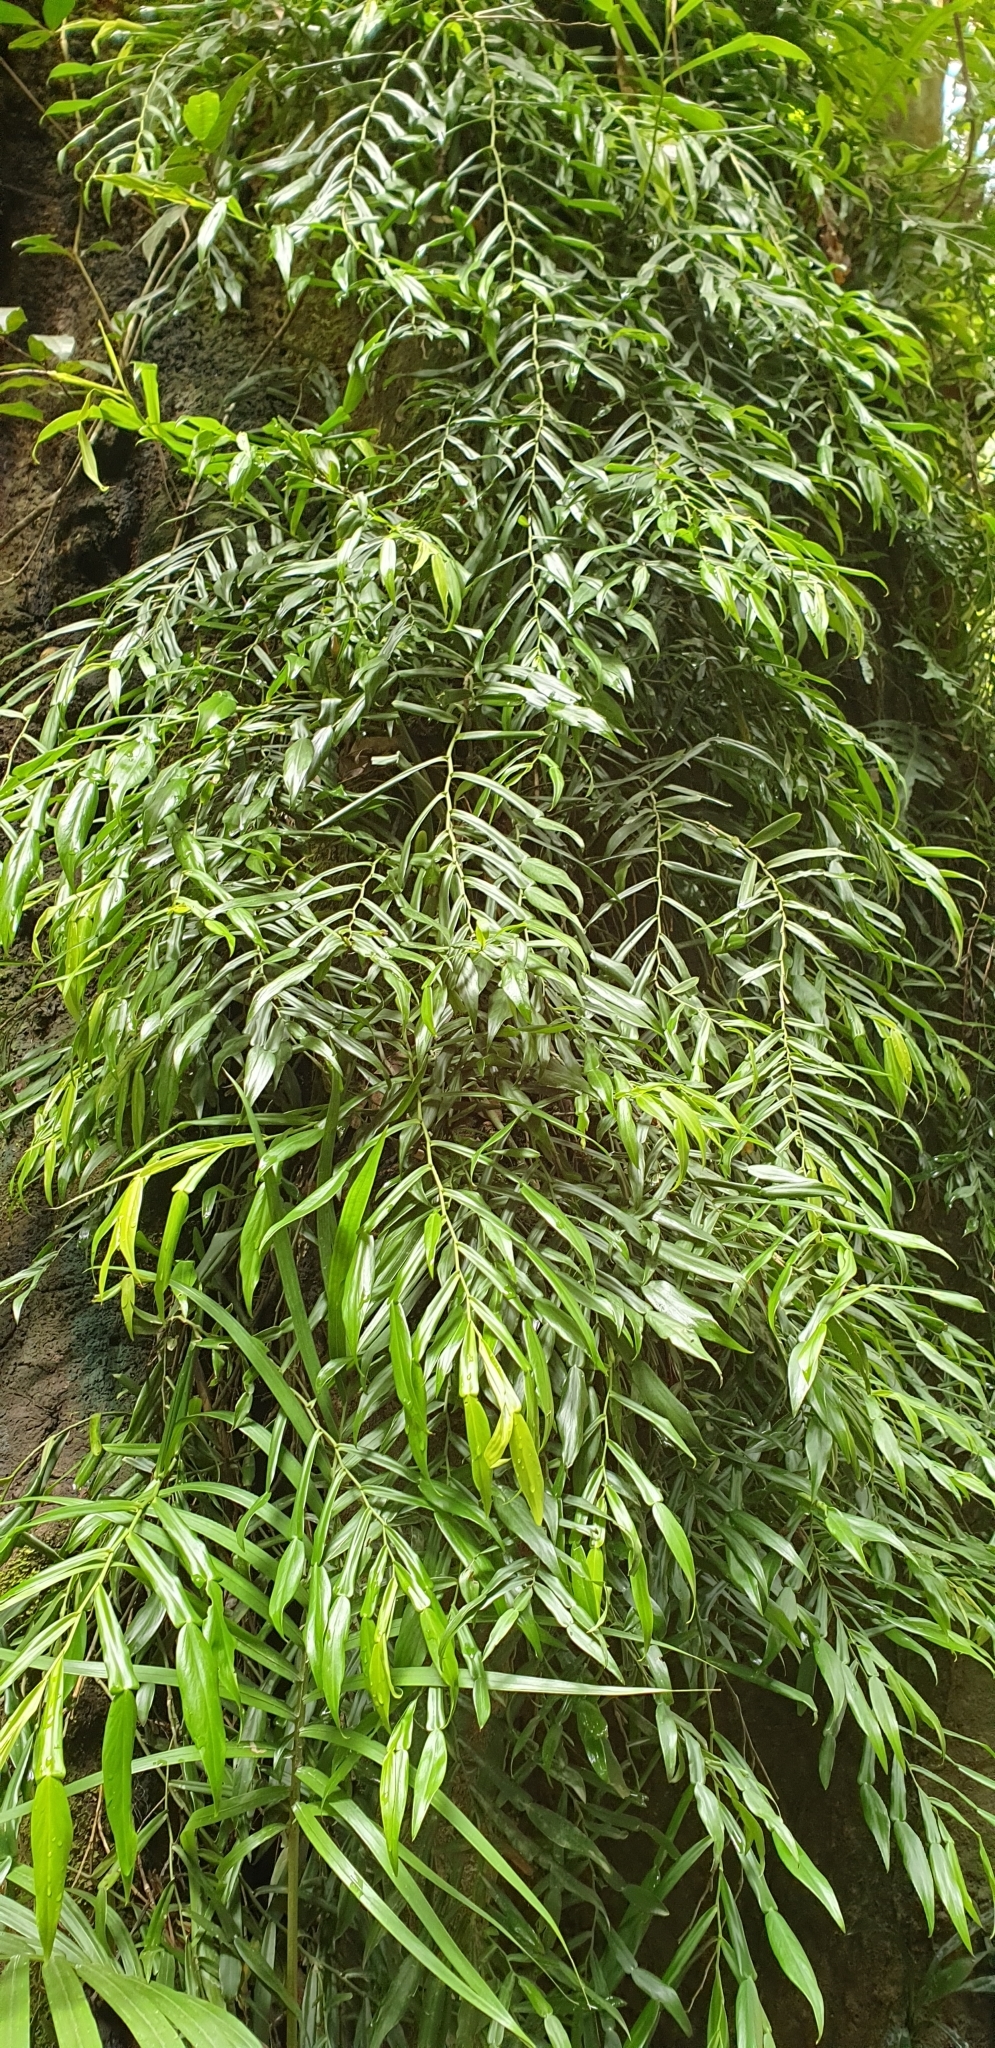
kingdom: Plantae
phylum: Tracheophyta
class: Liliopsida
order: Alismatales
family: Araceae
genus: Pothos
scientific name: Pothos longipes
